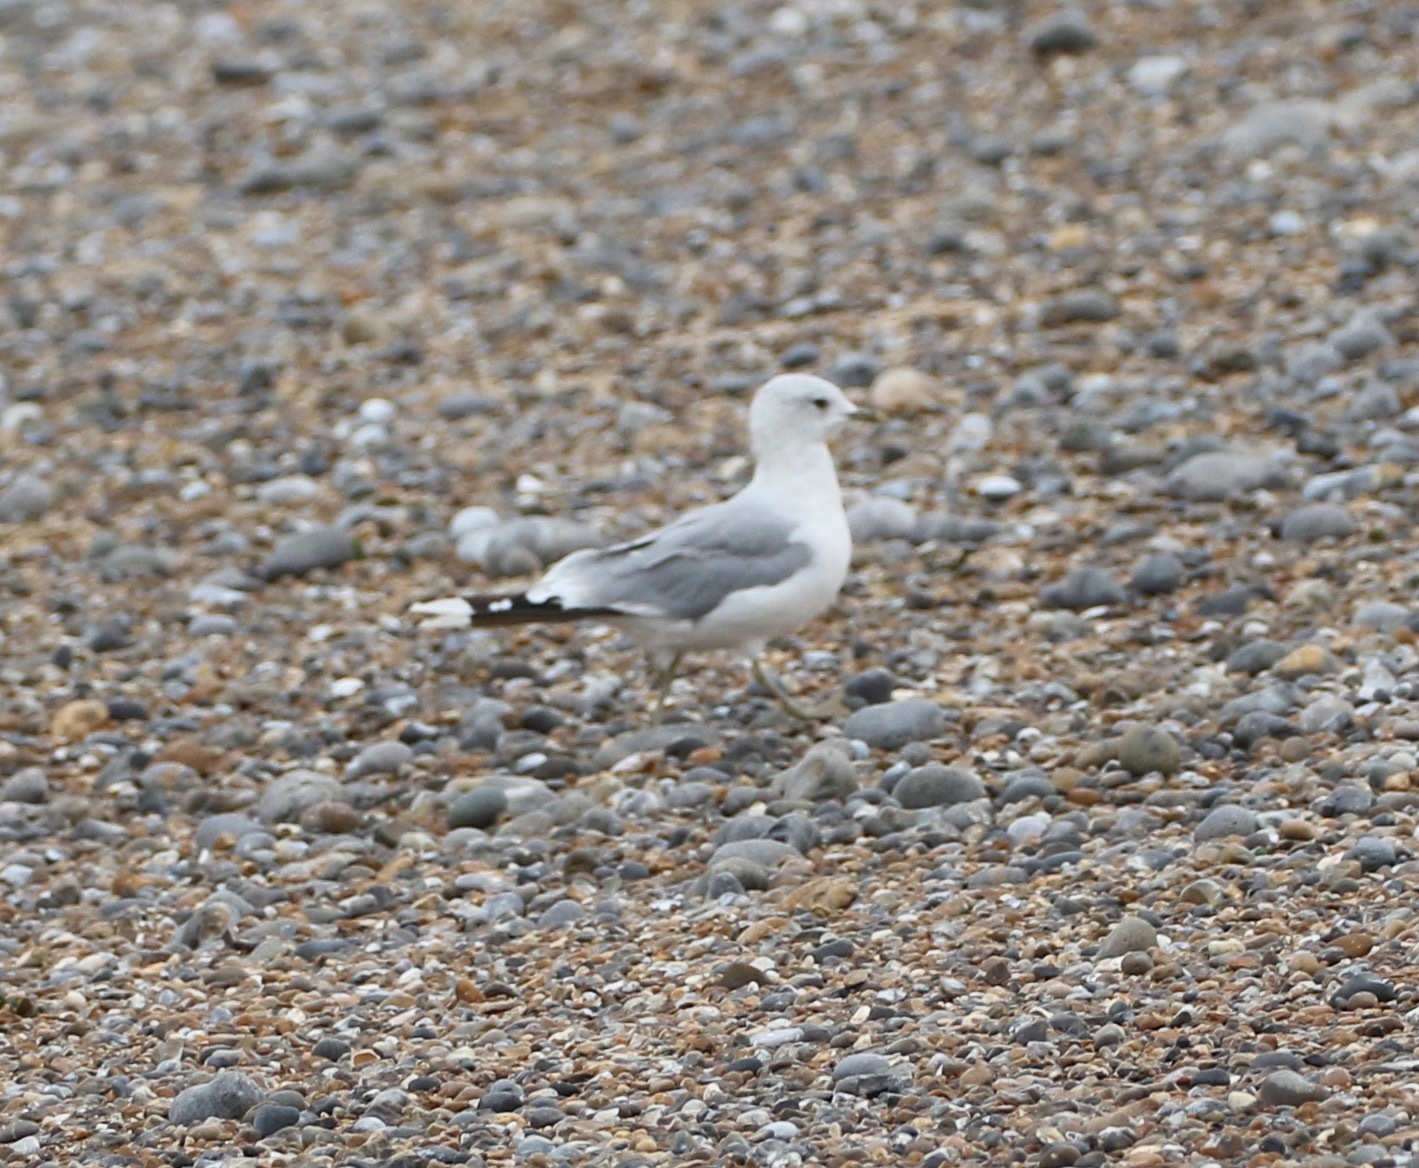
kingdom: Animalia
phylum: Chordata
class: Aves
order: Charadriiformes
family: Laridae
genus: Larus
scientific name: Larus canus
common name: Mew gull
